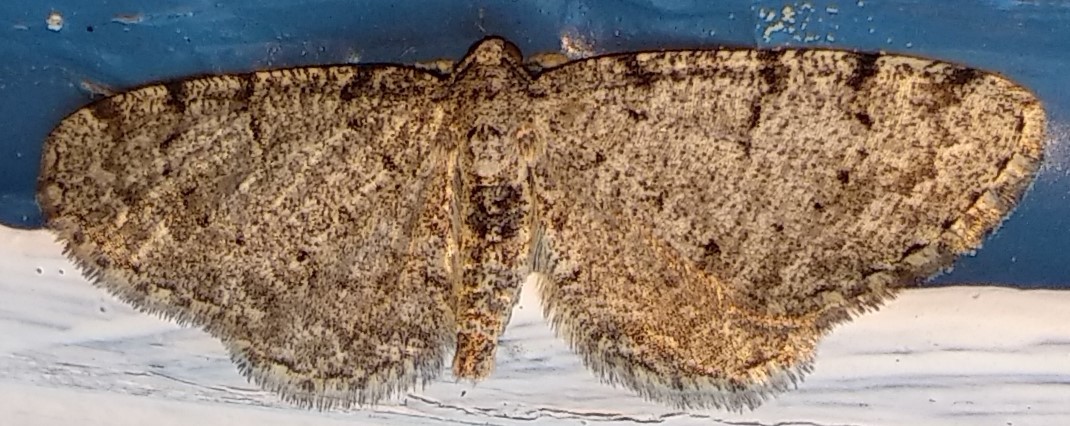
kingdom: Animalia
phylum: Arthropoda
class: Insecta
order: Lepidoptera
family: Geometridae
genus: Aethalura
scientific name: Aethalura intertexta
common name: Four-barred gray
